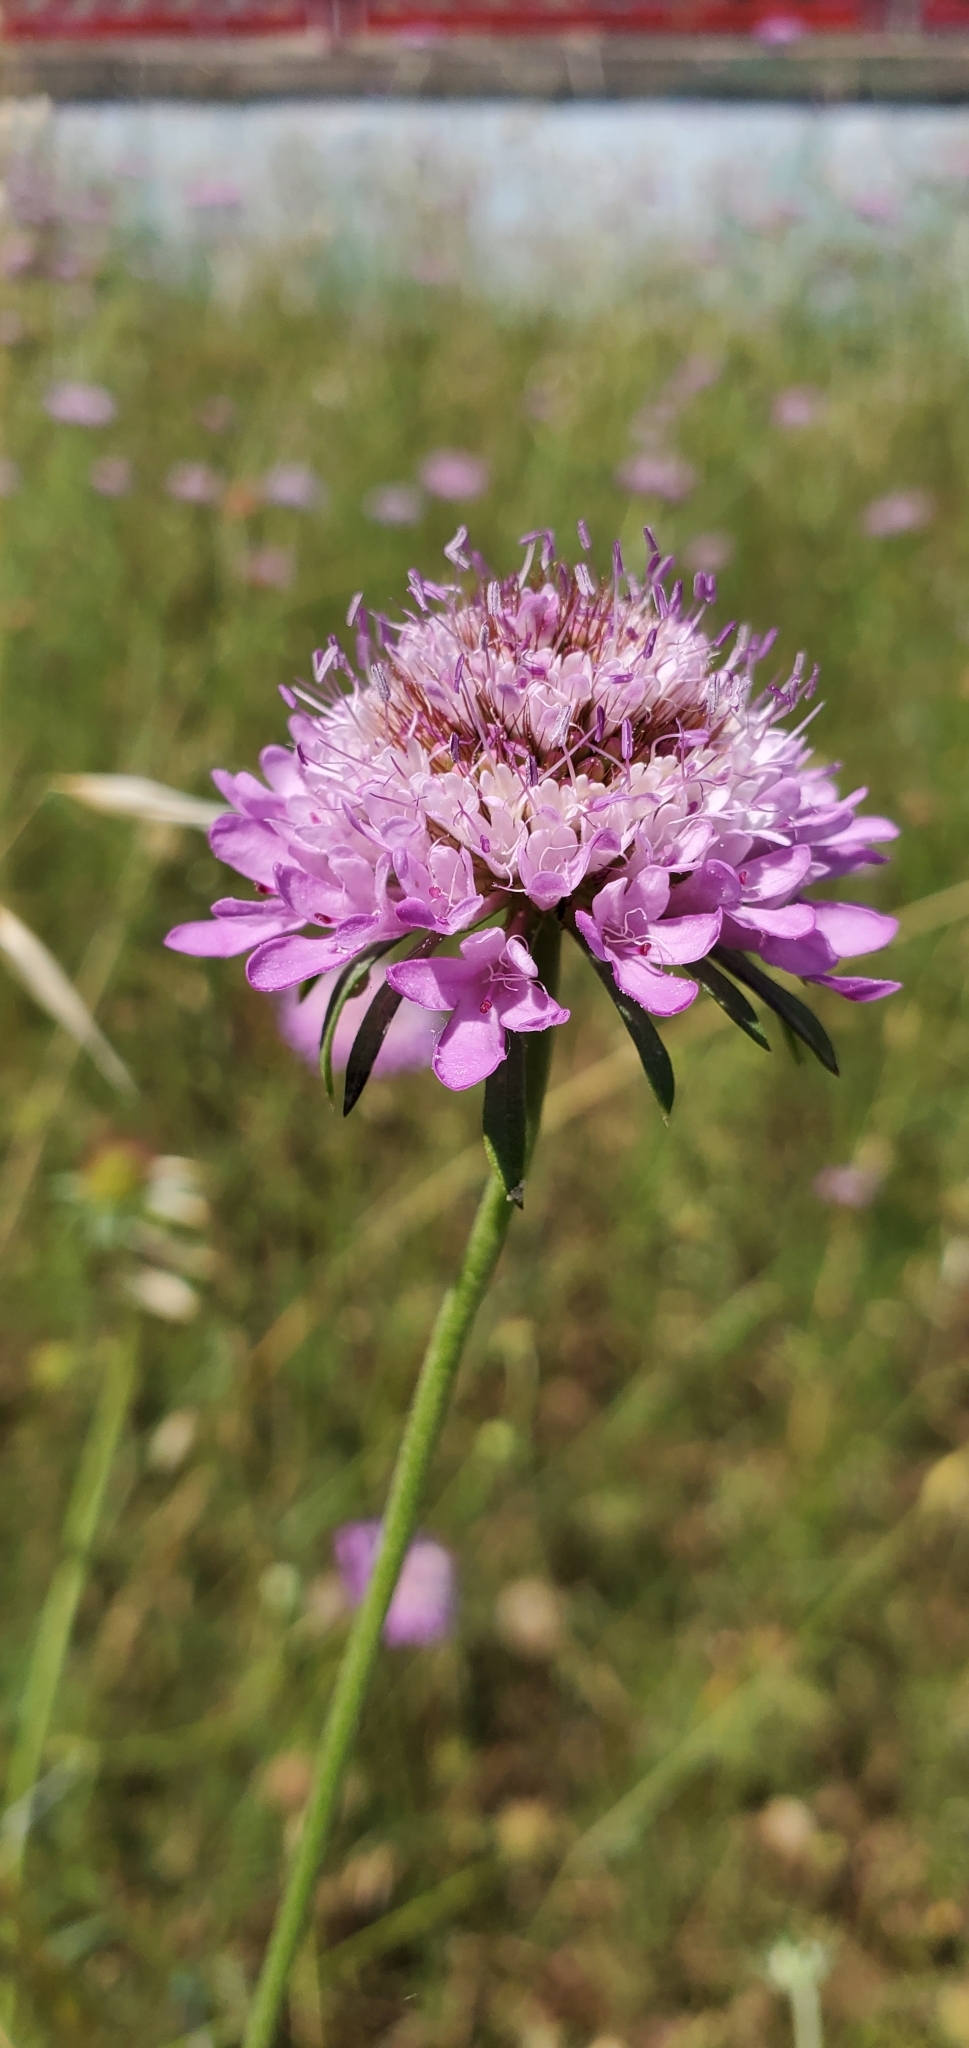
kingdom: Plantae
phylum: Tracheophyta
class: Magnoliopsida
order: Dipsacales
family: Caprifoliaceae
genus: Sixalix
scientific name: Sixalix atropurpurea
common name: Sweet scabious
